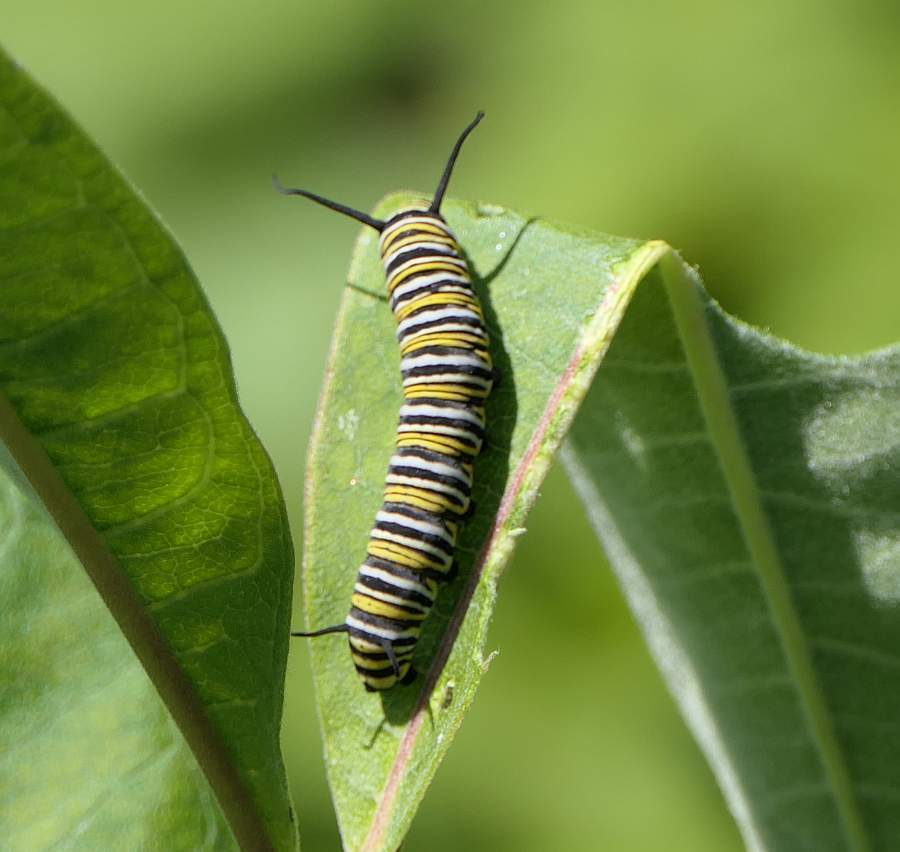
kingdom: Animalia
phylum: Arthropoda
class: Insecta
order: Lepidoptera
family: Nymphalidae
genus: Danaus
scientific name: Danaus plexippus
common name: Monarch
